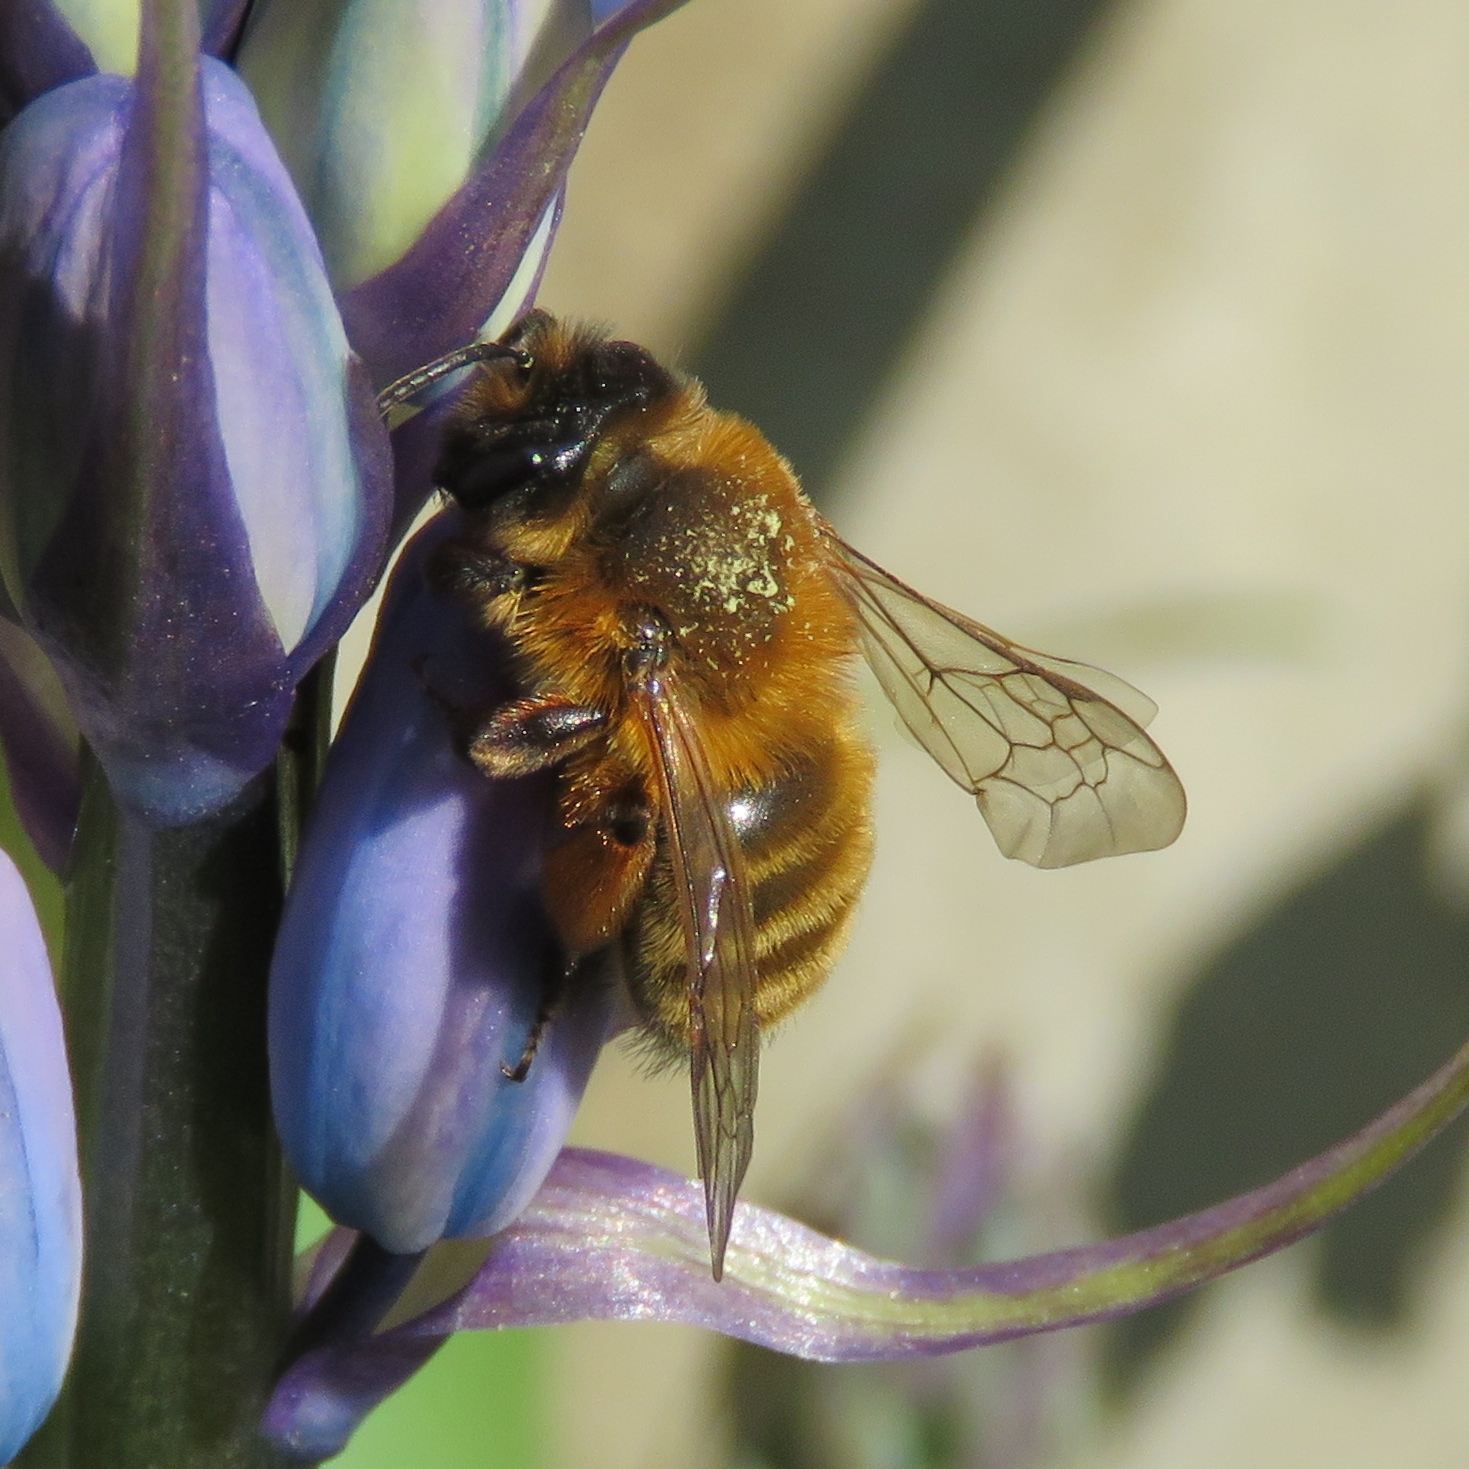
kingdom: Animalia
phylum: Arthropoda
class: Insecta
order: Hymenoptera
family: Andrenidae
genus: Andrena
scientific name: Andrena nigroaenea
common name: Buffish mining bee
